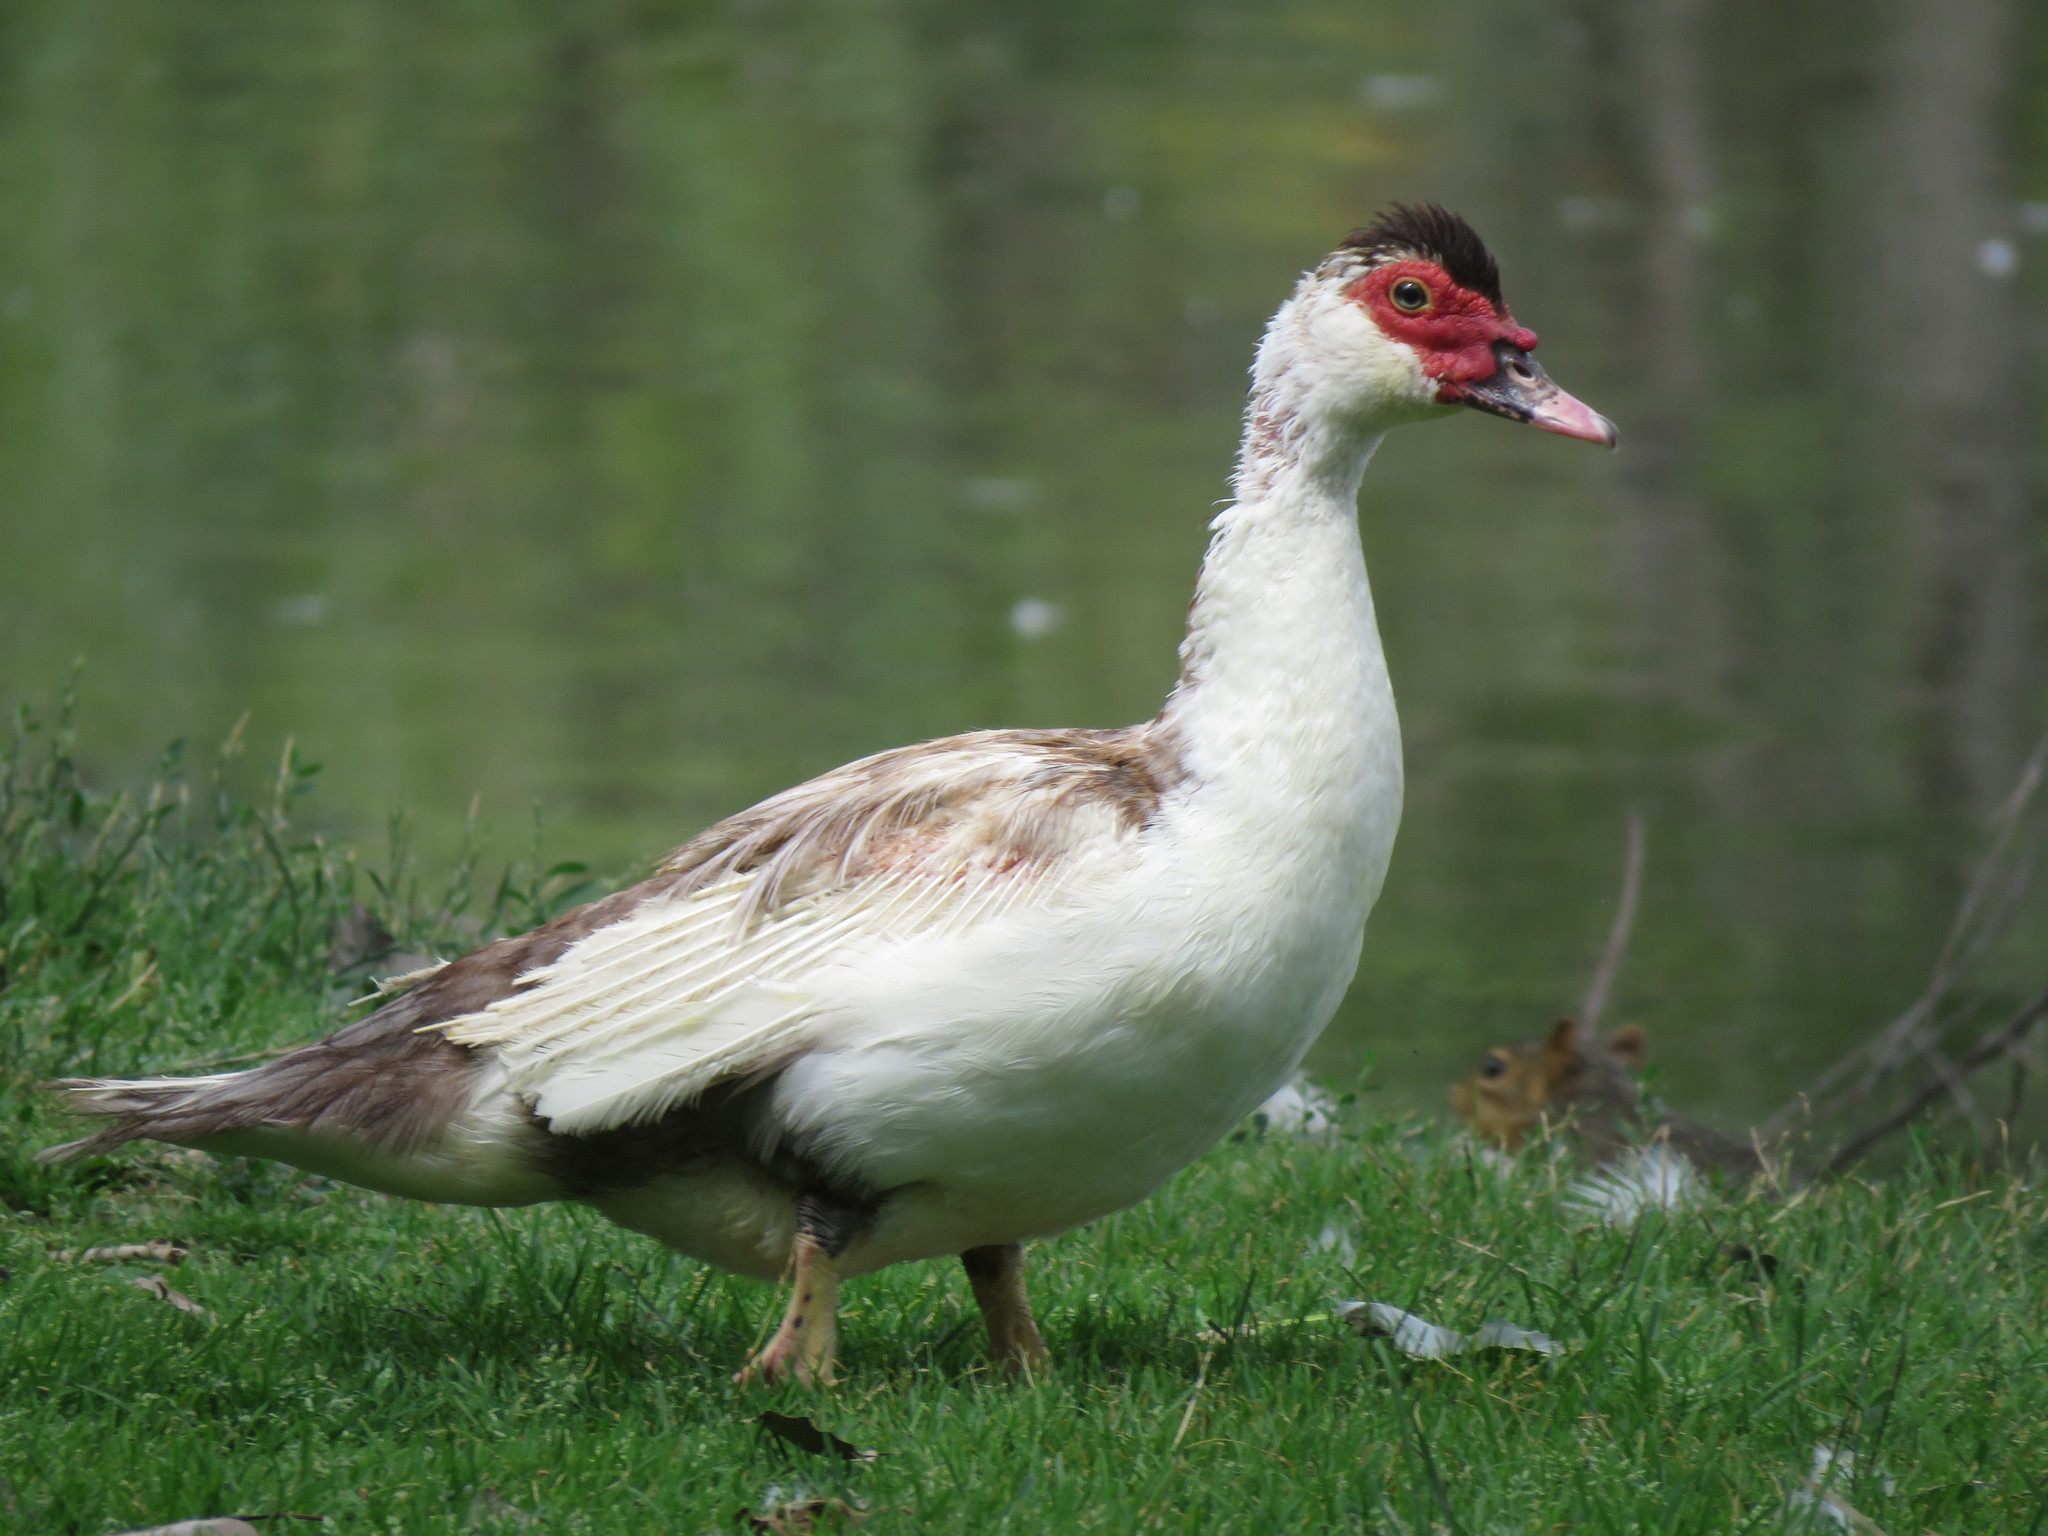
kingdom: Animalia
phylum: Chordata
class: Aves
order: Anseriformes
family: Anatidae
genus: Cairina
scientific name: Cairina moschata
